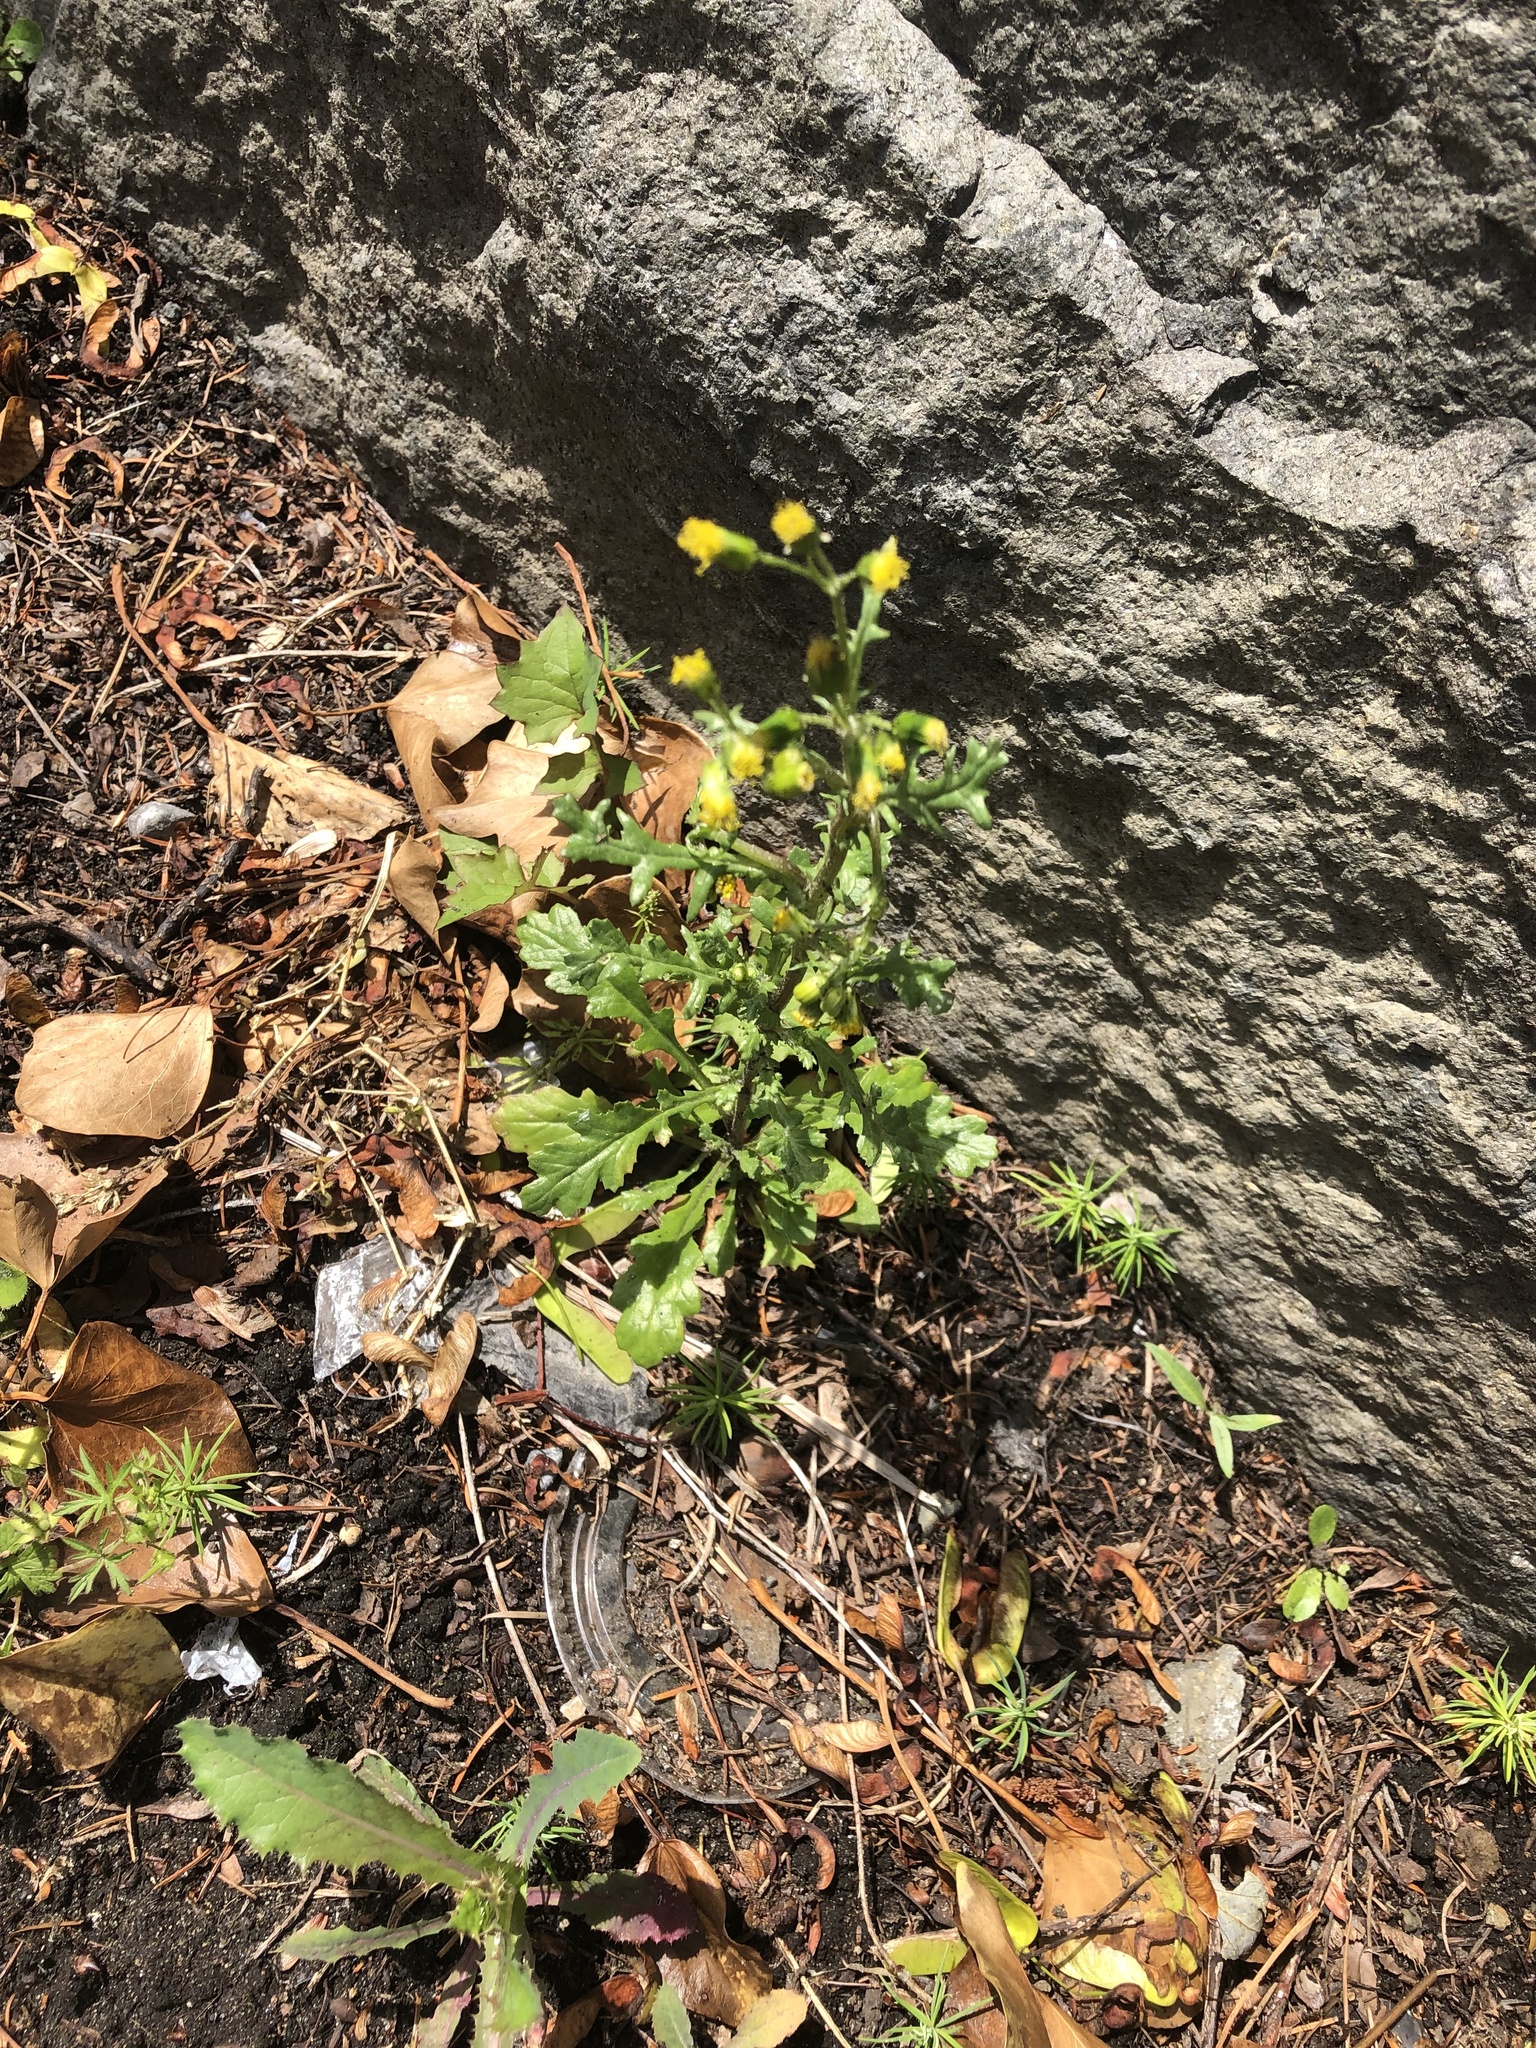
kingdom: Plantae
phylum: Tracheophyta
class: Magnoliopsida
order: Asterales
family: Asteraceae
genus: Senecio
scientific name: Senecio vulgaris
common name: Old-man-in-the-spring
